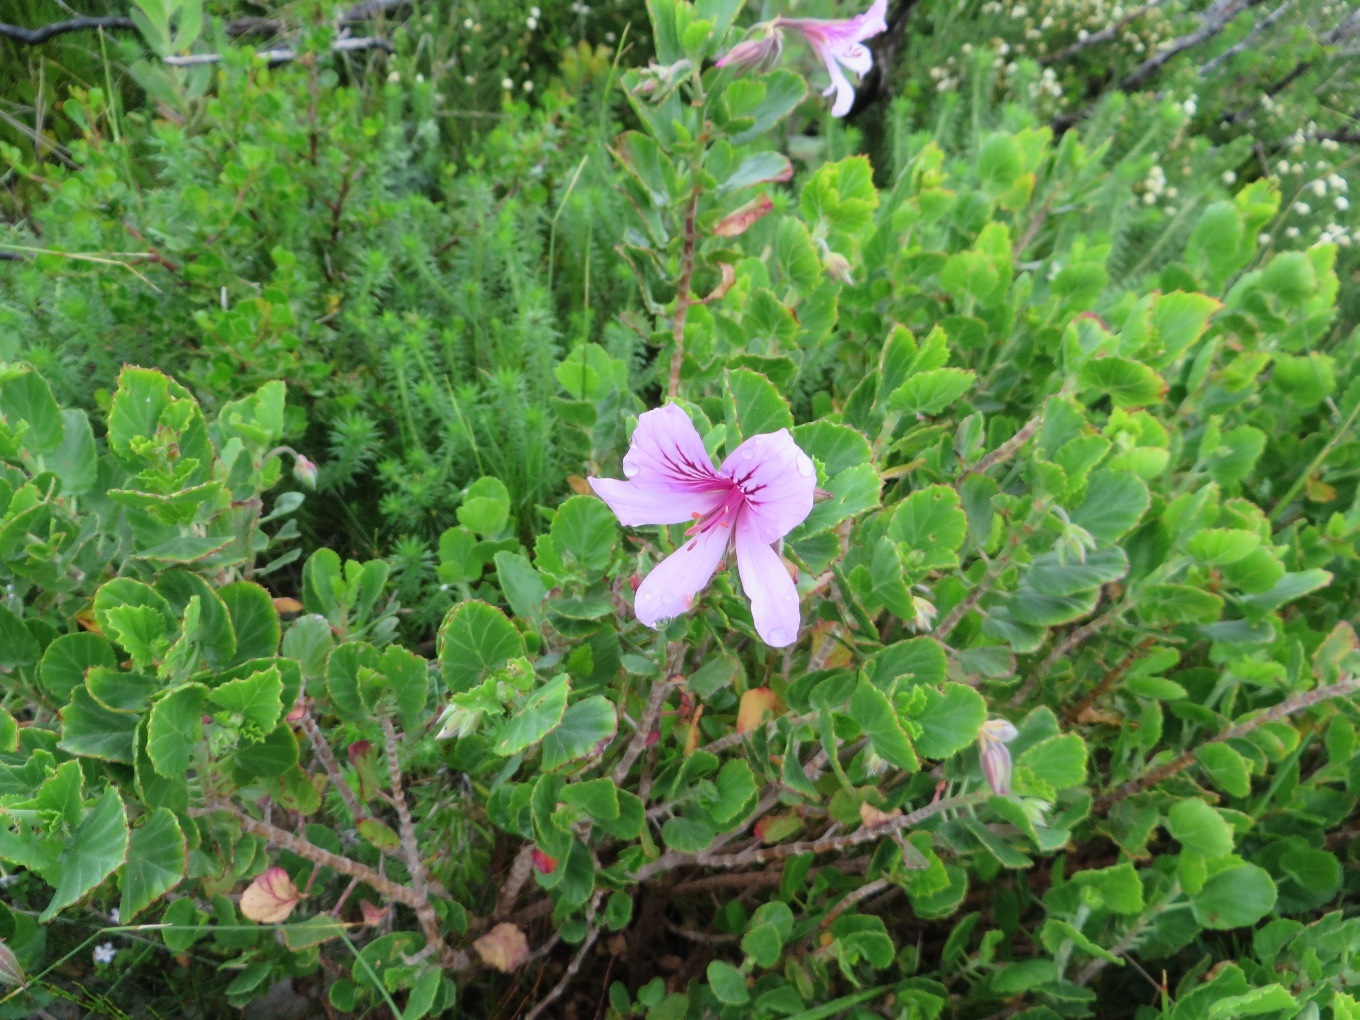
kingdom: Plantae
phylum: Tracheophyta
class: Magnoliopsida
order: Geraniales
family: Geraniaceae
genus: Pelargonium
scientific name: Pelargonium betulinum
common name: Birch-leaf pelargonium
